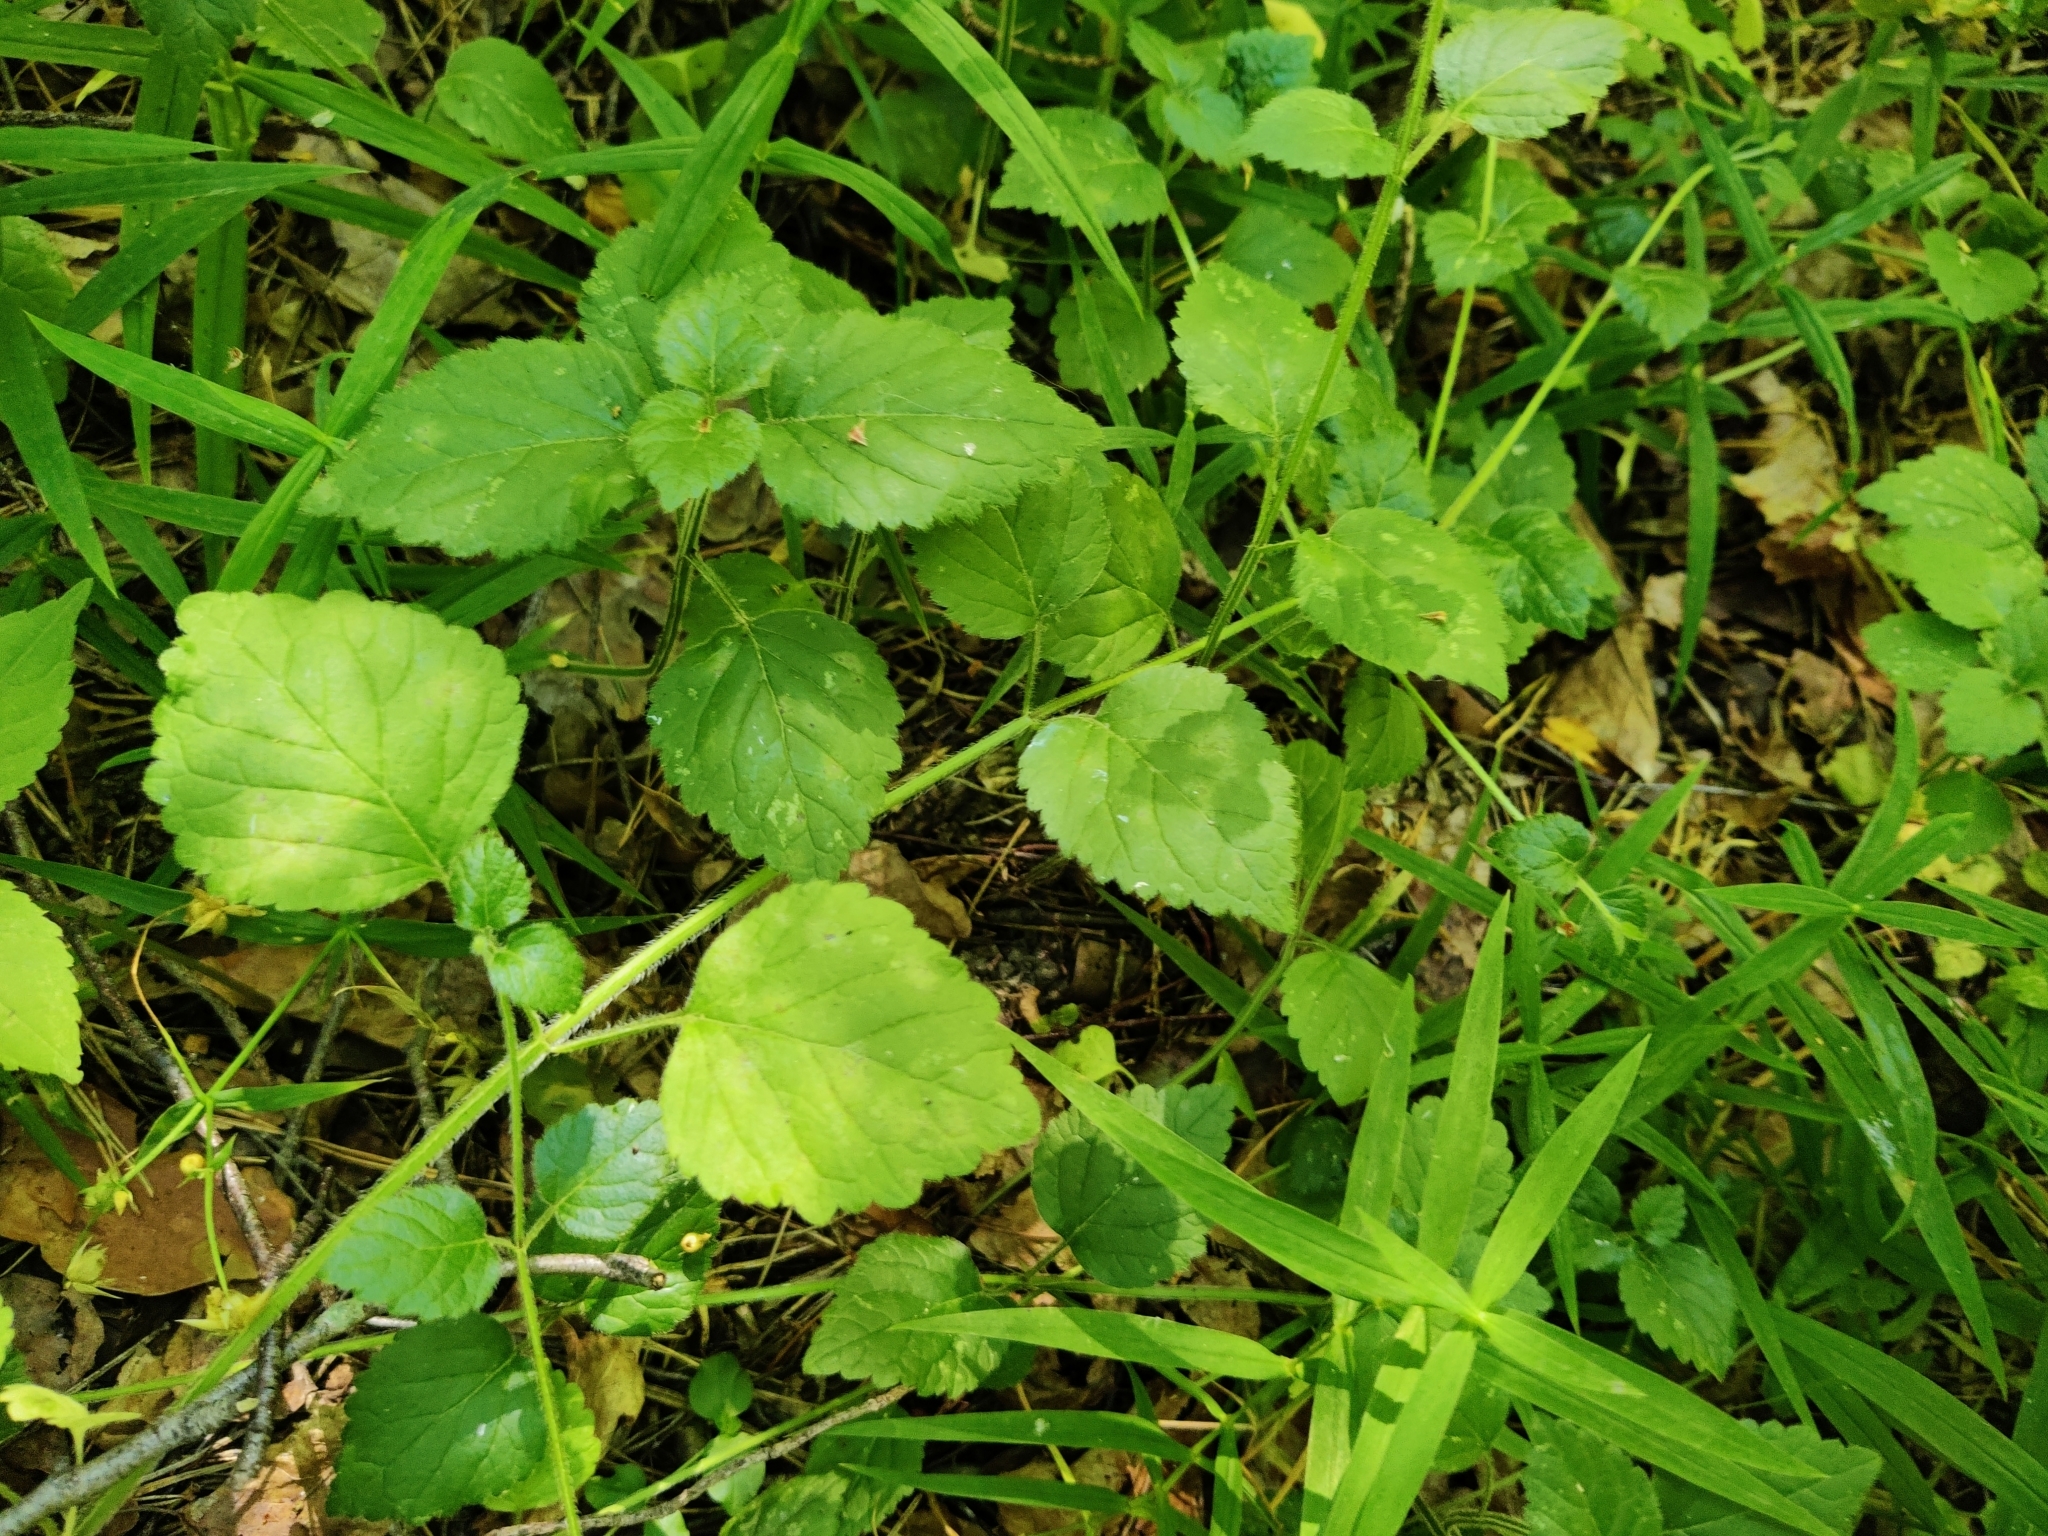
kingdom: Plantae
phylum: Tracheophyta
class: Magnoliopsida
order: Lamiales
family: Lamiaceae
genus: Lamium
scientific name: Lamium galeobdolon
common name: Yellow archangel
